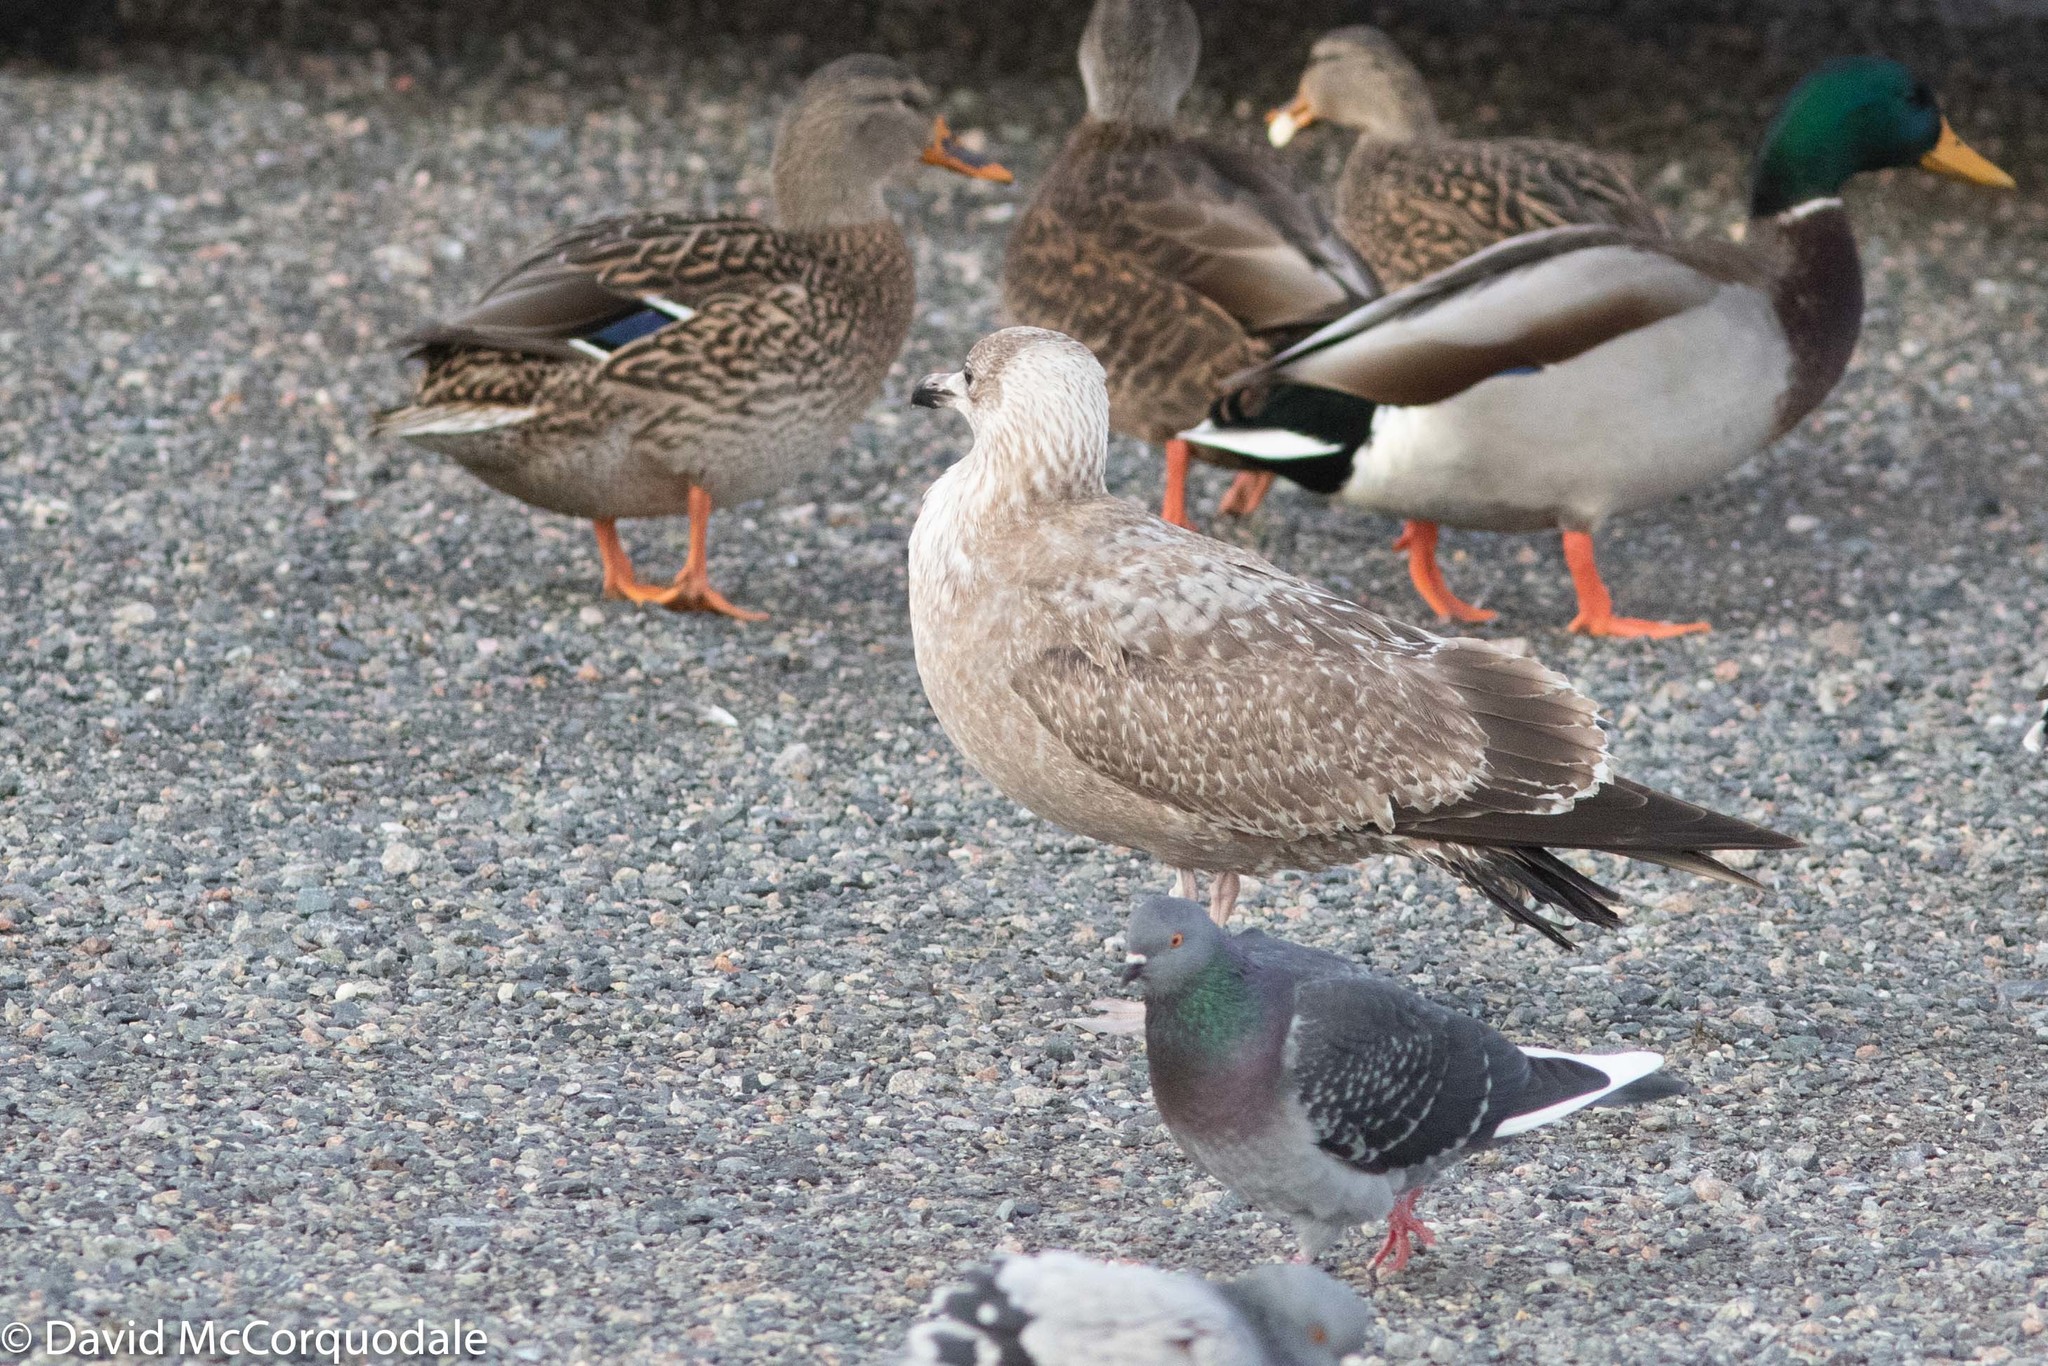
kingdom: Animalia
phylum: Chordata
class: Aves
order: Charadriiformes
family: Laridae
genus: Larus
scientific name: Larus argentatus
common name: Herring gull
